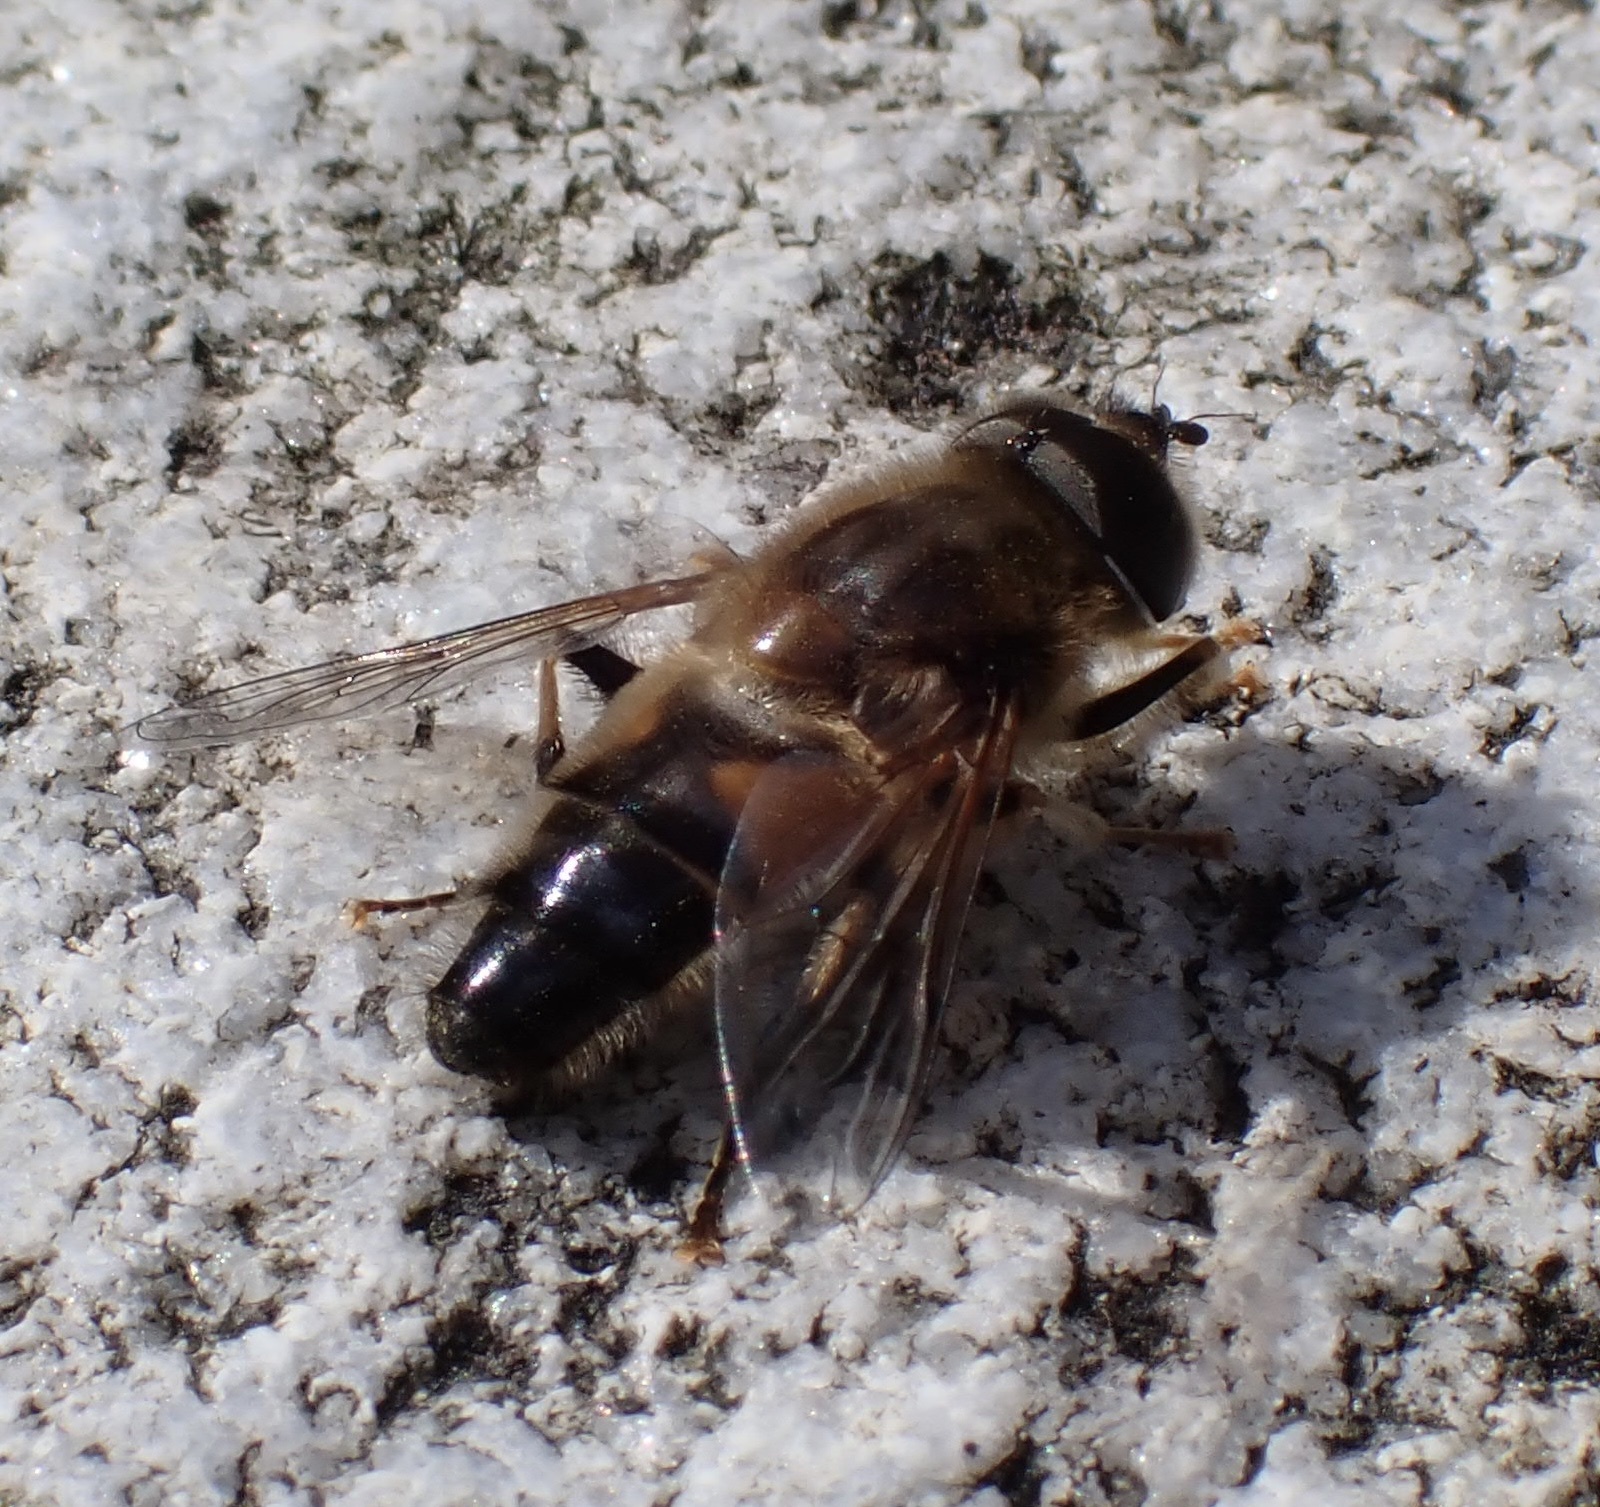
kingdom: Animalia
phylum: Arthropoda
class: Insecta
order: Diptera
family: Syrphidae
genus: Eristalis
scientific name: Eristalis pertinax
